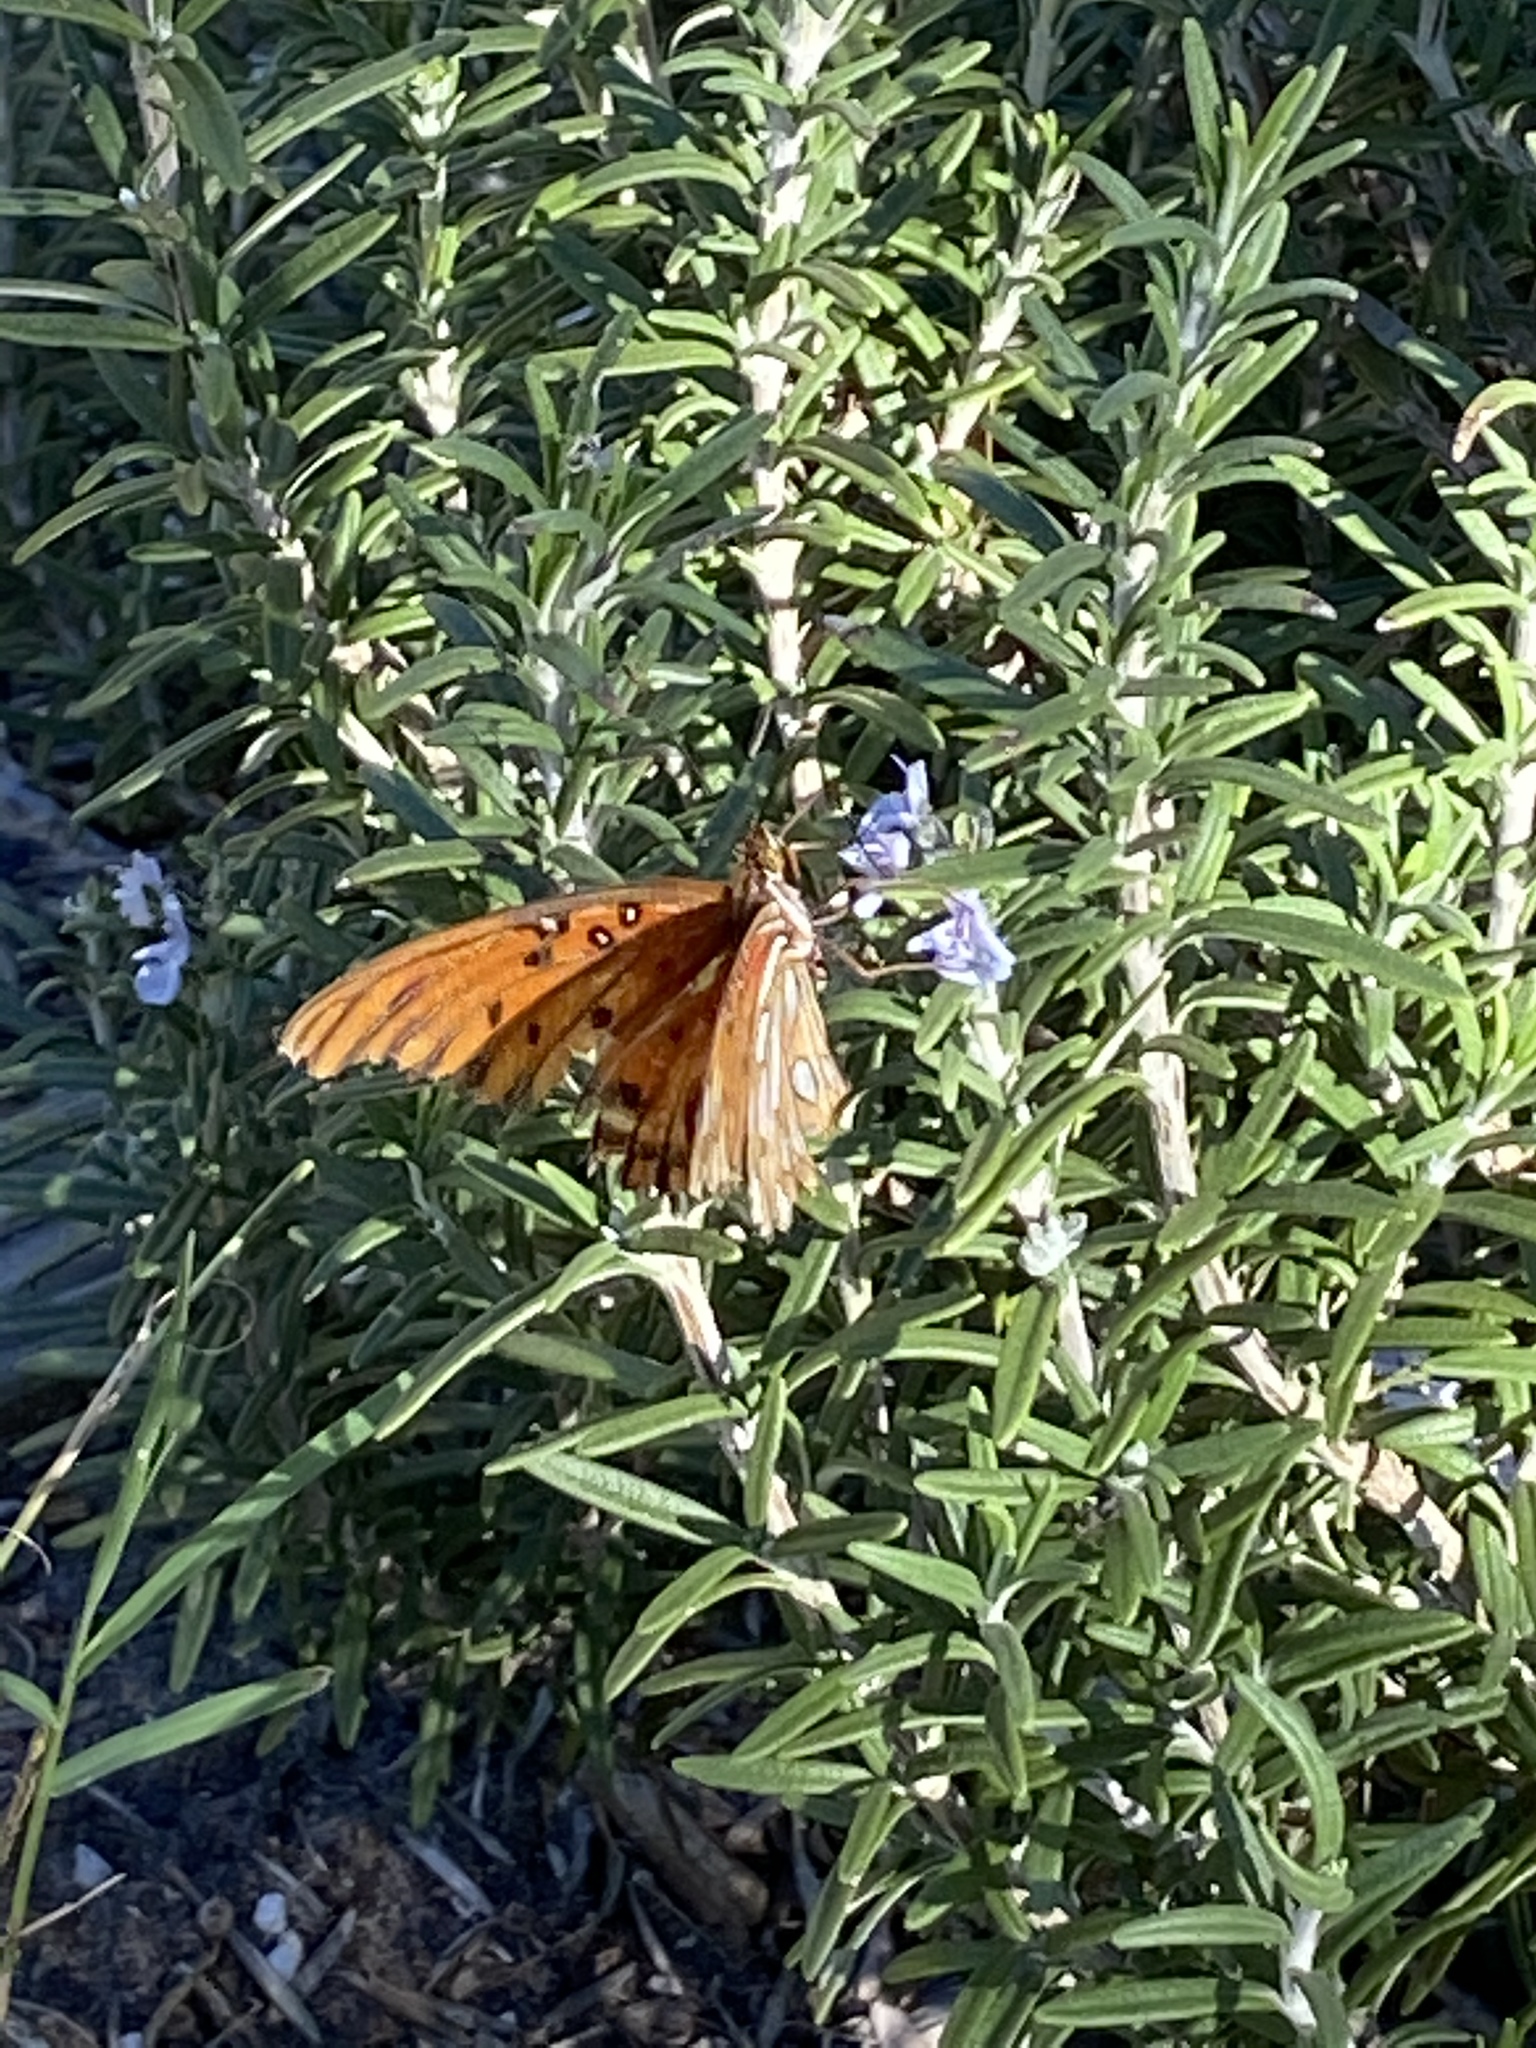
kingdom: Animalia
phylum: Arthropoda
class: Insecta
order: Lepidoptera
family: Nymphalidae
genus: Dione
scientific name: Dione vanillae
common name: Gulf fritillary
